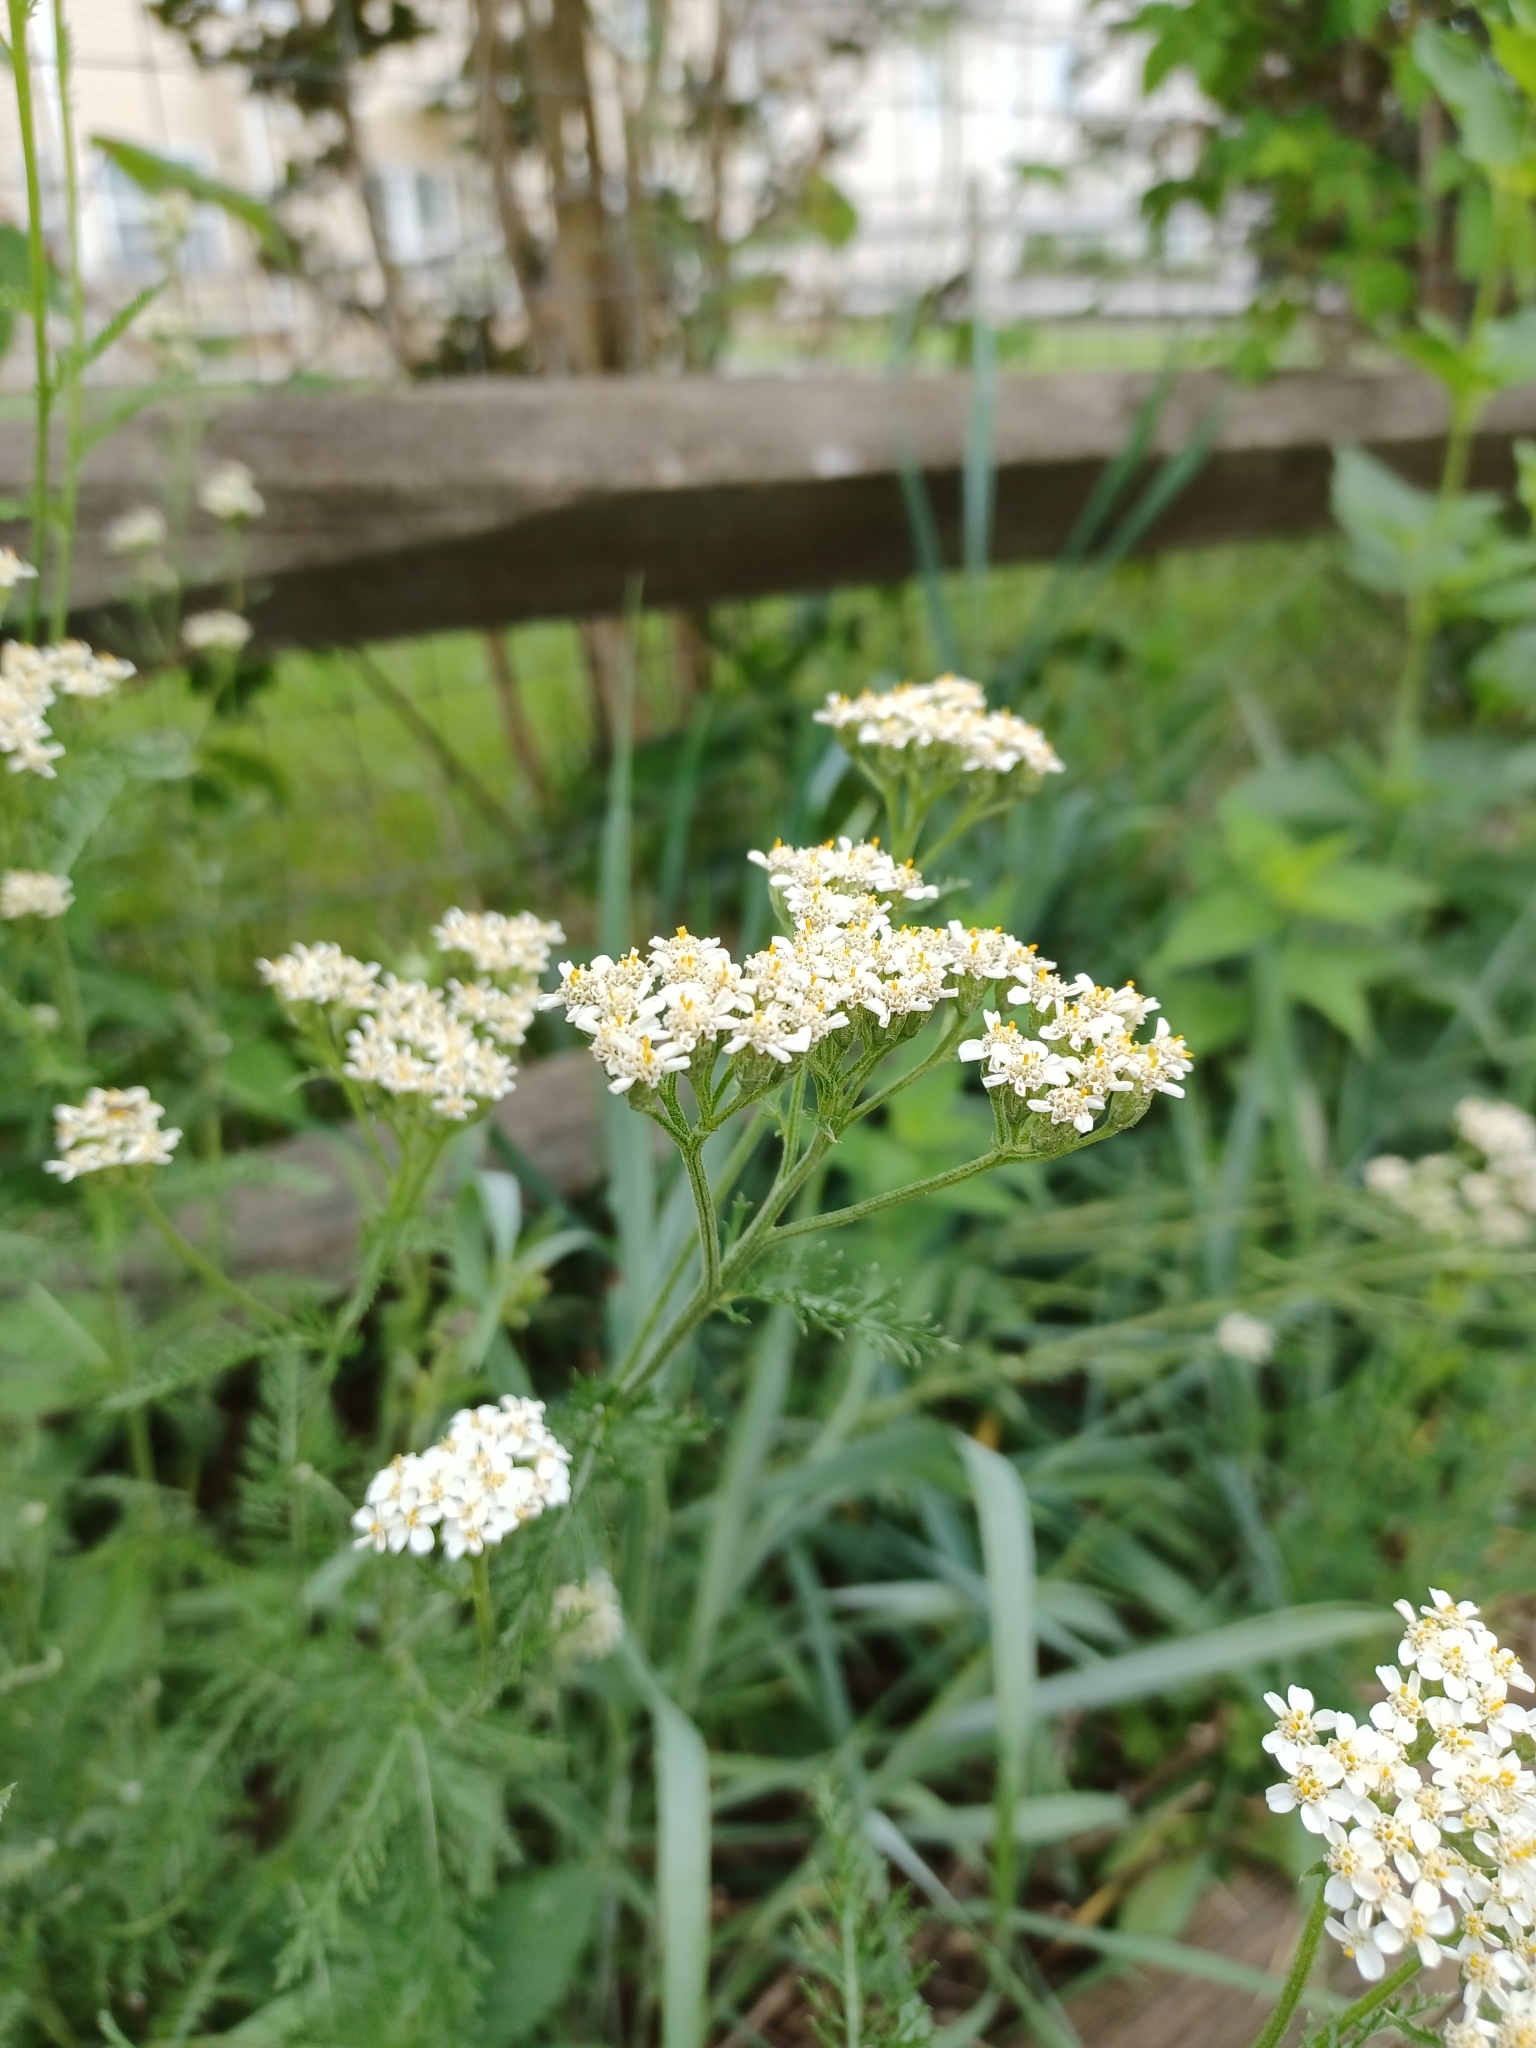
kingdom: Plantae
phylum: Tracheophyta
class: Magnoliopsida
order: Asterales
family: Asteraceae
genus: Achillea
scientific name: Achillea millefolium
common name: Yarrow
